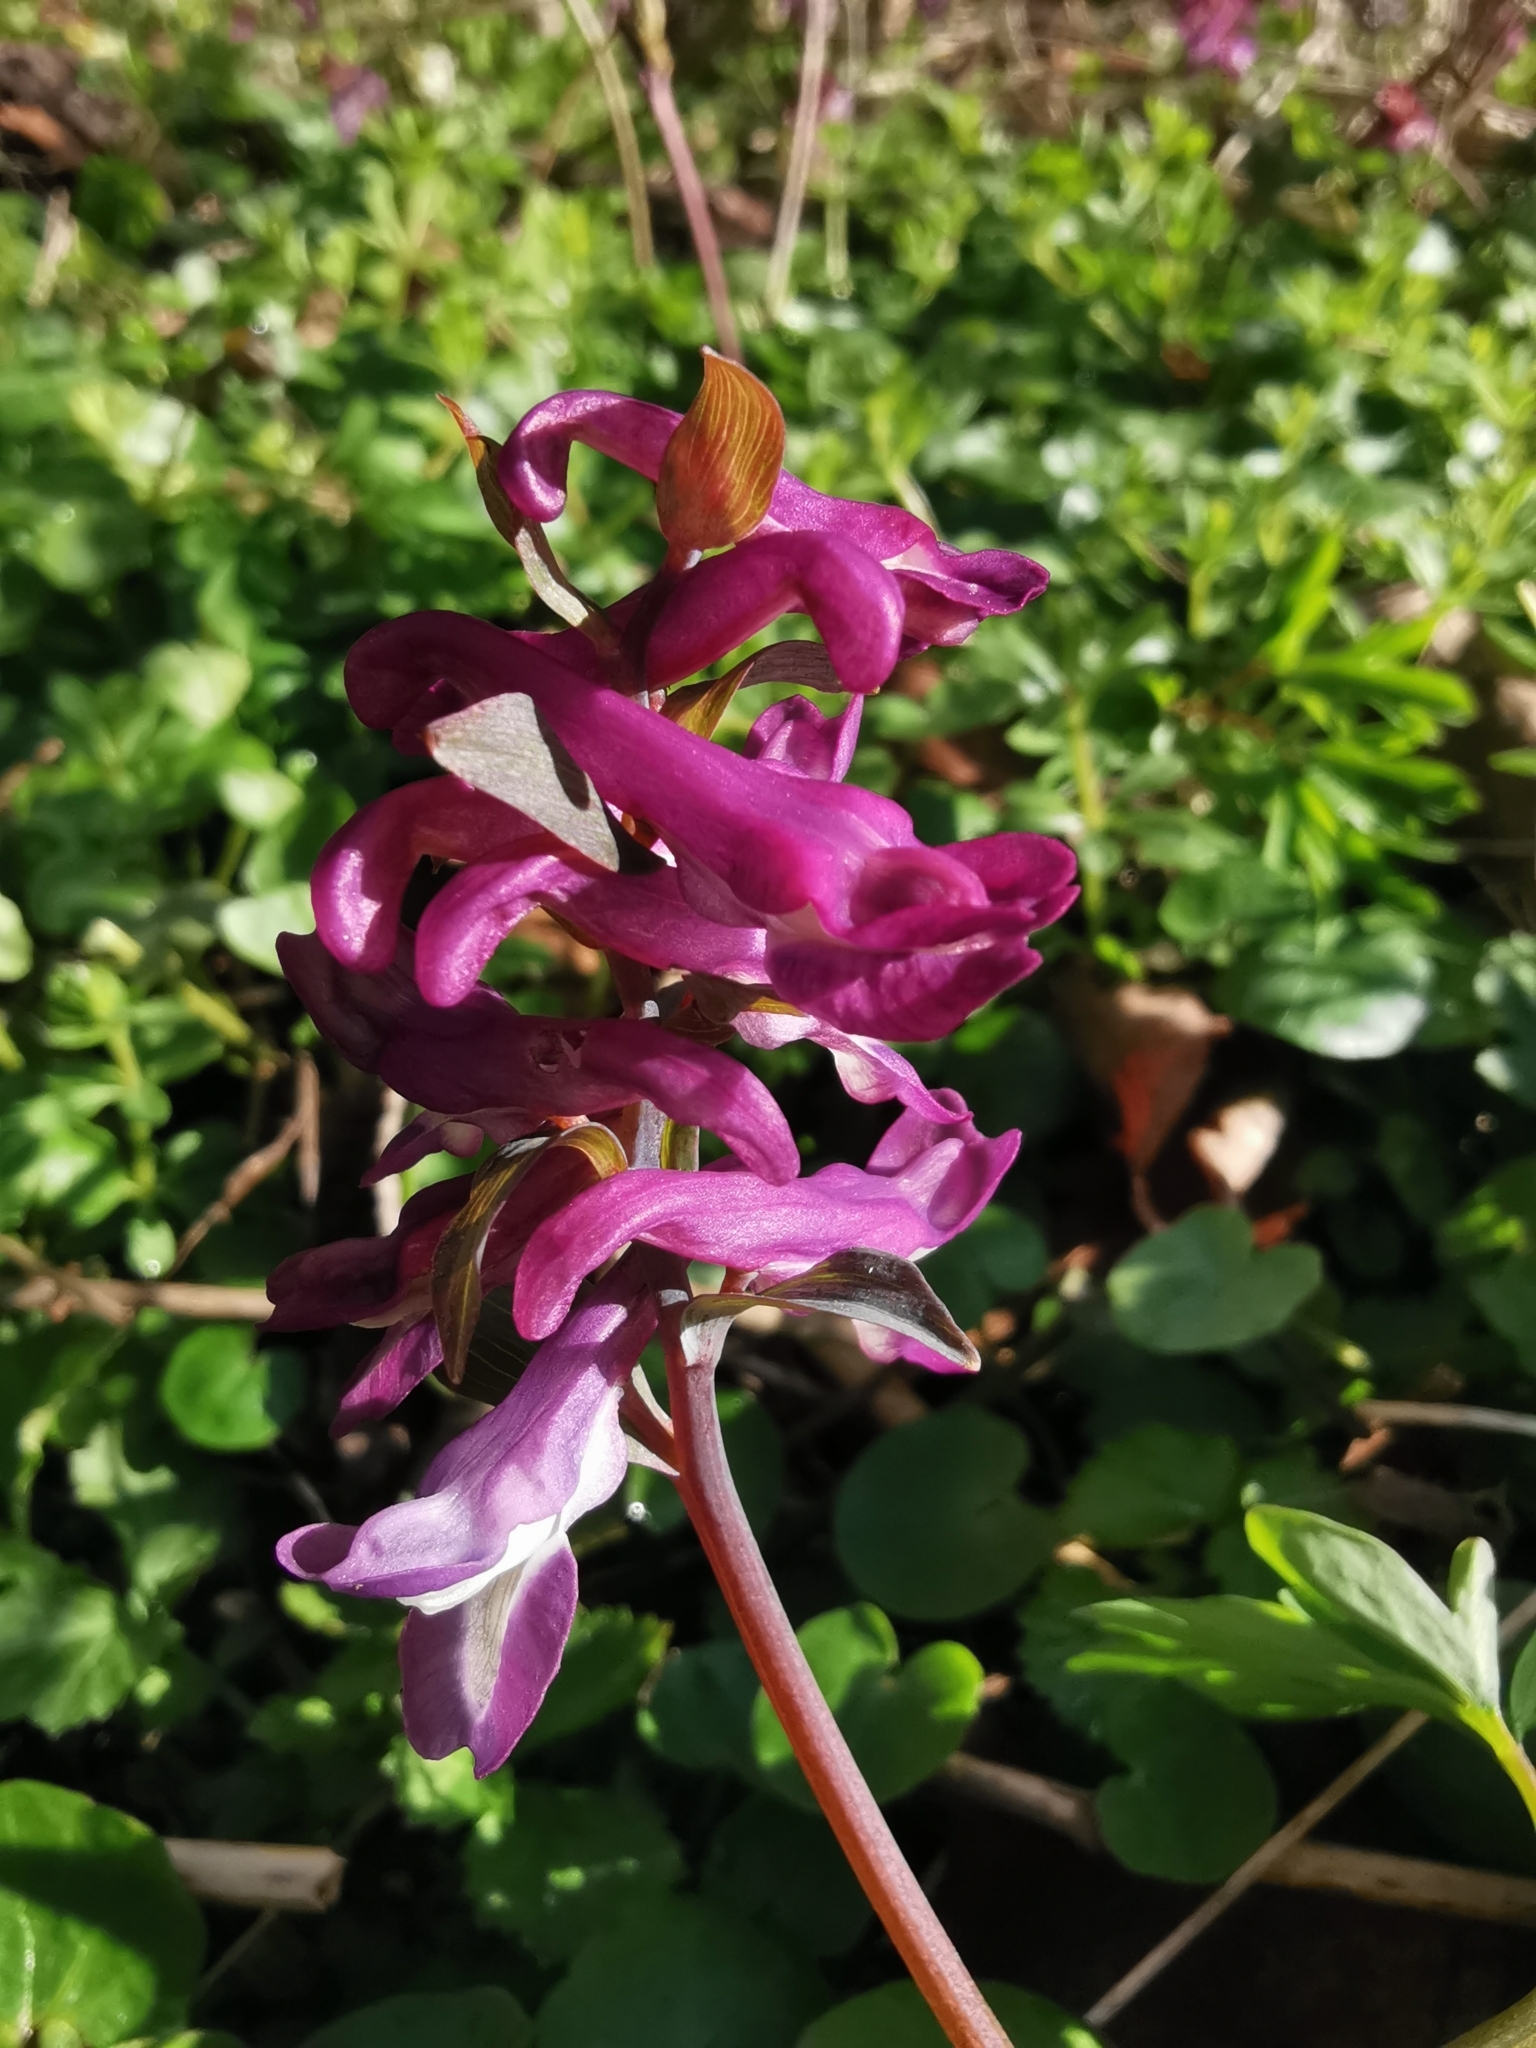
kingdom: Plantae
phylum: Tracheophyta
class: Magnoliopsida
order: Ranunculales
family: Papaveraceae
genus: Corydalis
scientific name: Corydalis cava
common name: Hollowroot
